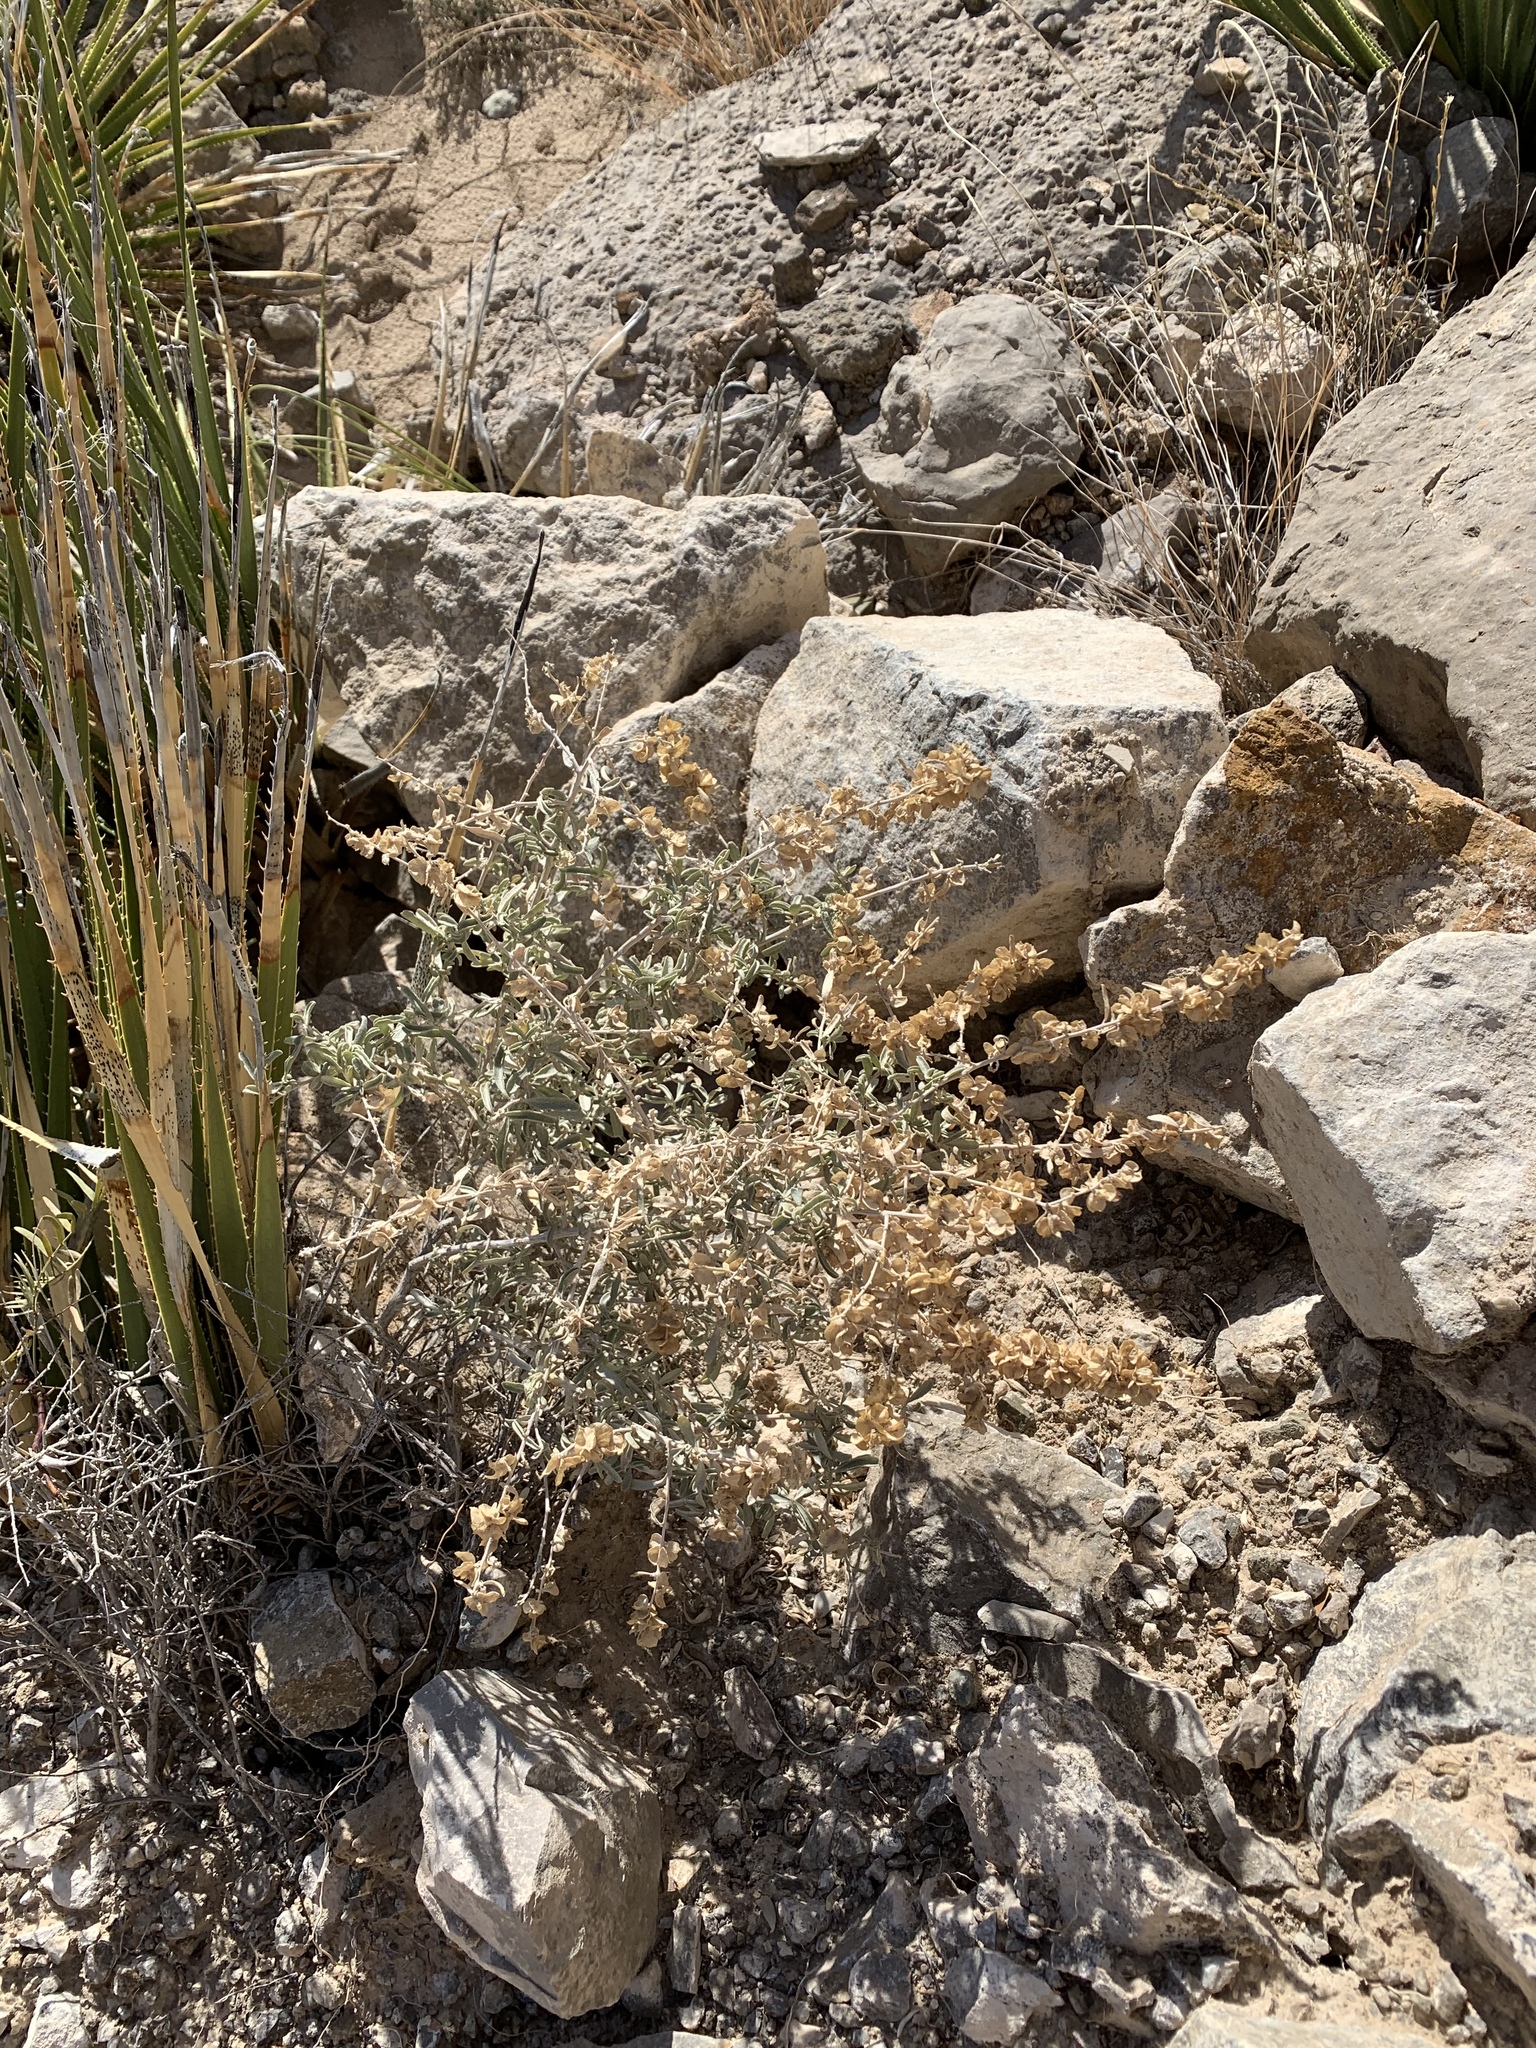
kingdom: Plantae
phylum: Tracheophyta
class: Magnoliopsida
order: Caryophyllales
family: Amaranthaceae
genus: Atriplex
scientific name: Atriplex canescens
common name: Four-wing saltbush
